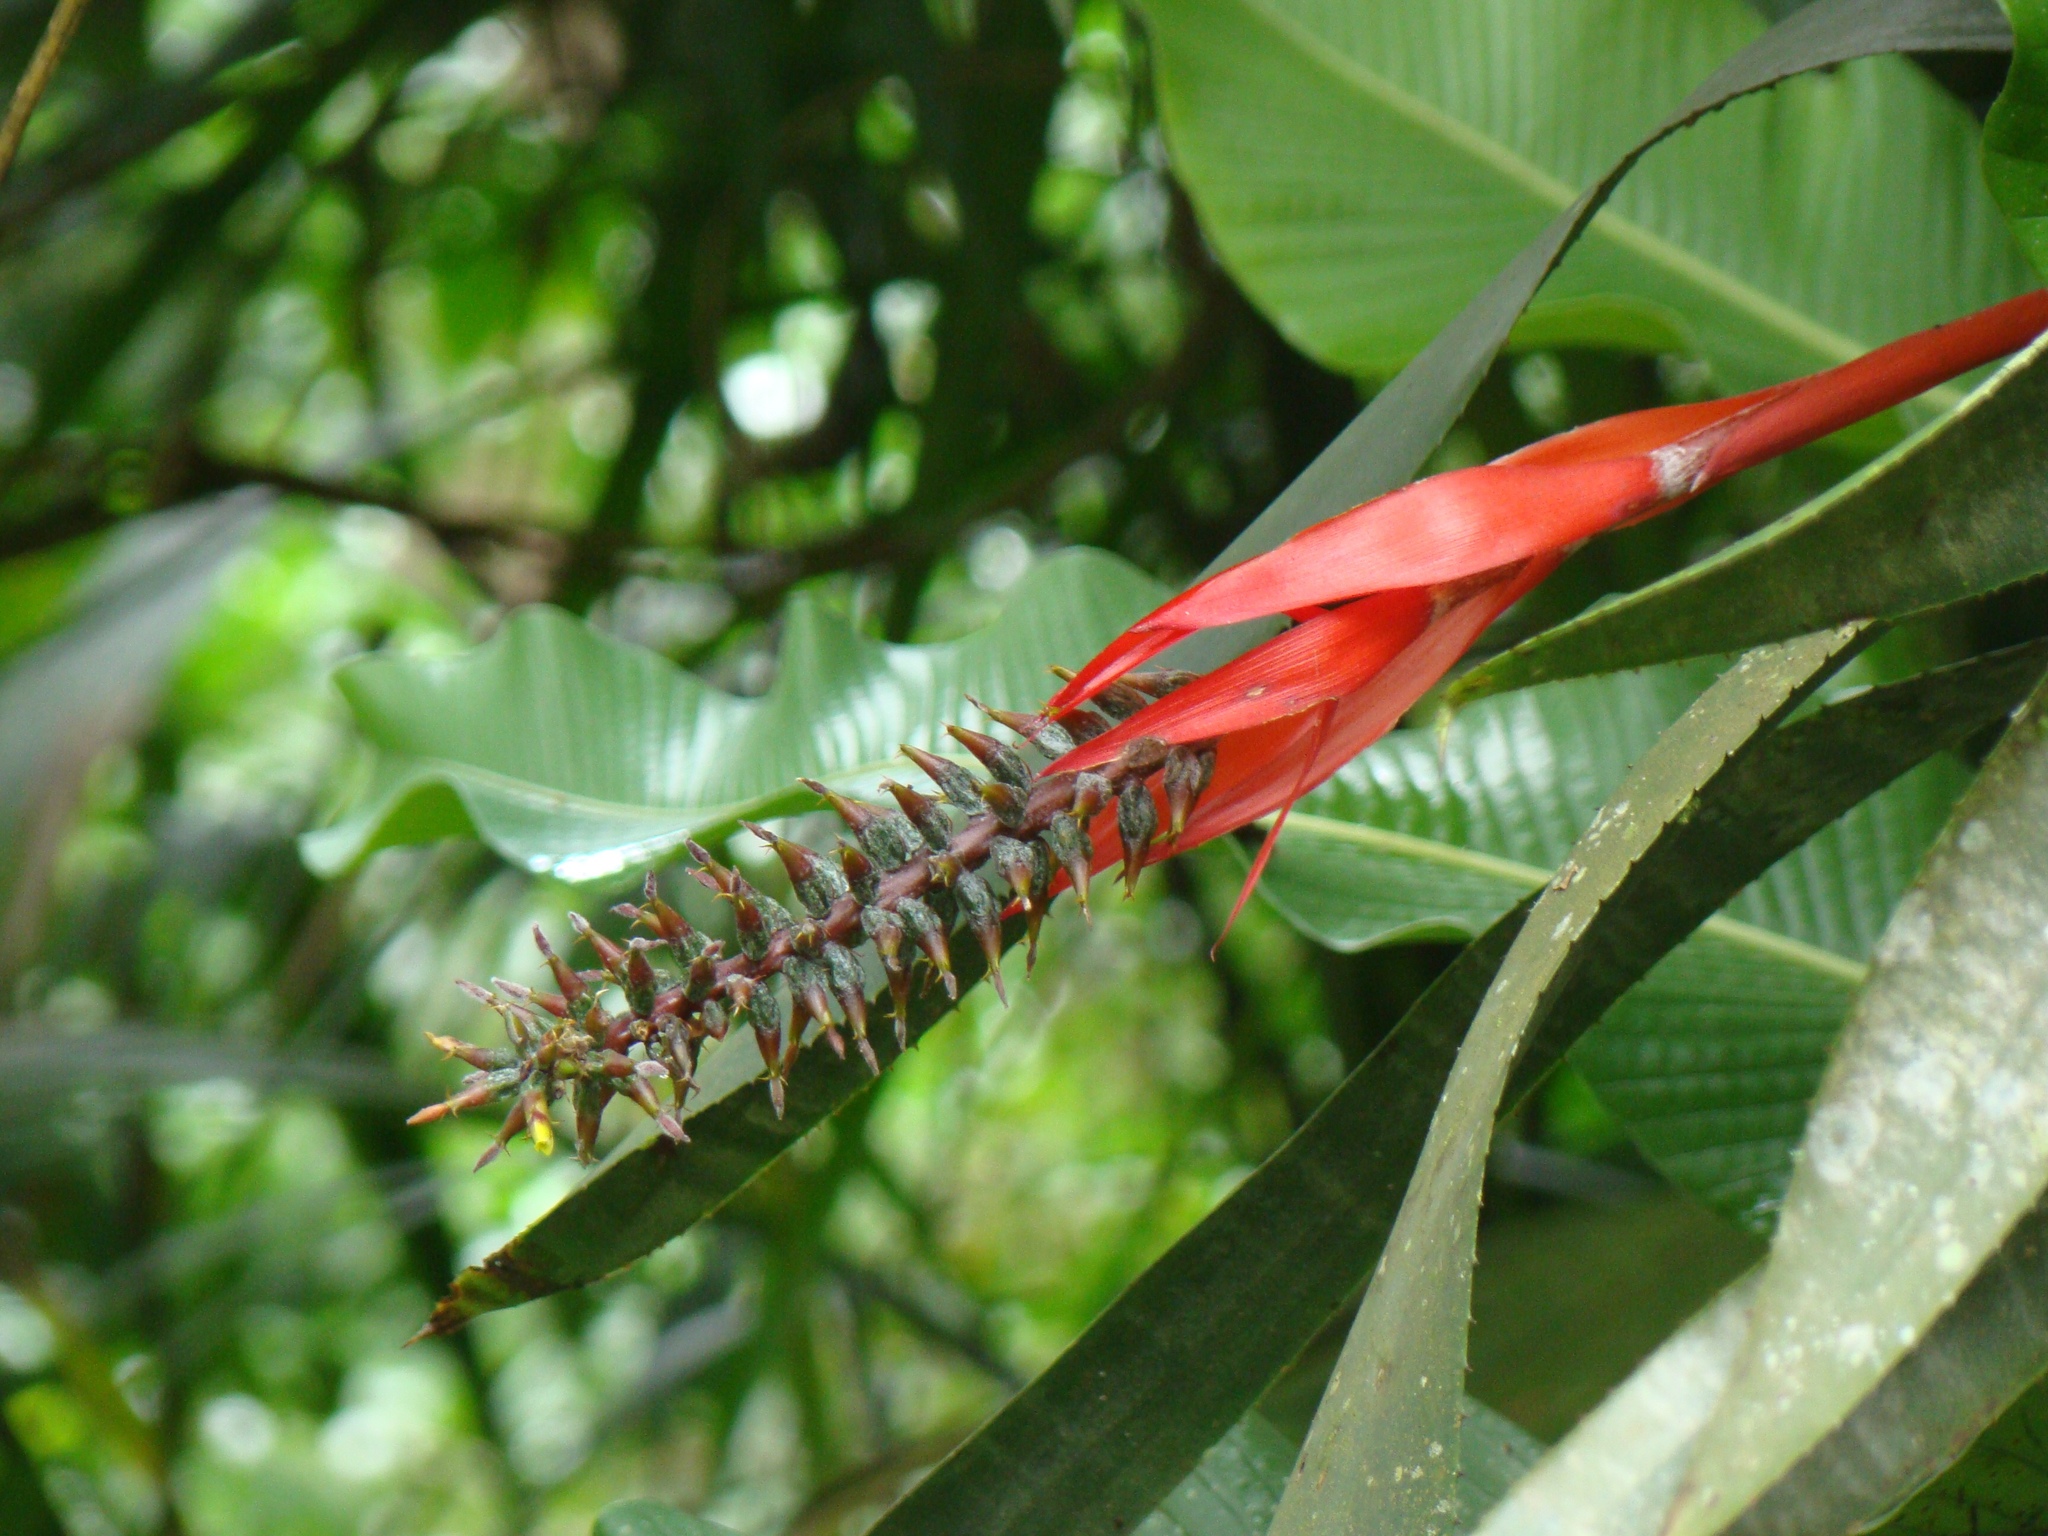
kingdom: Plantae
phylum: Tracheophyta
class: Liliopsida
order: Poales
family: Bromeliaceae
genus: Aechmea
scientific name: Aechmea nudicaulis
